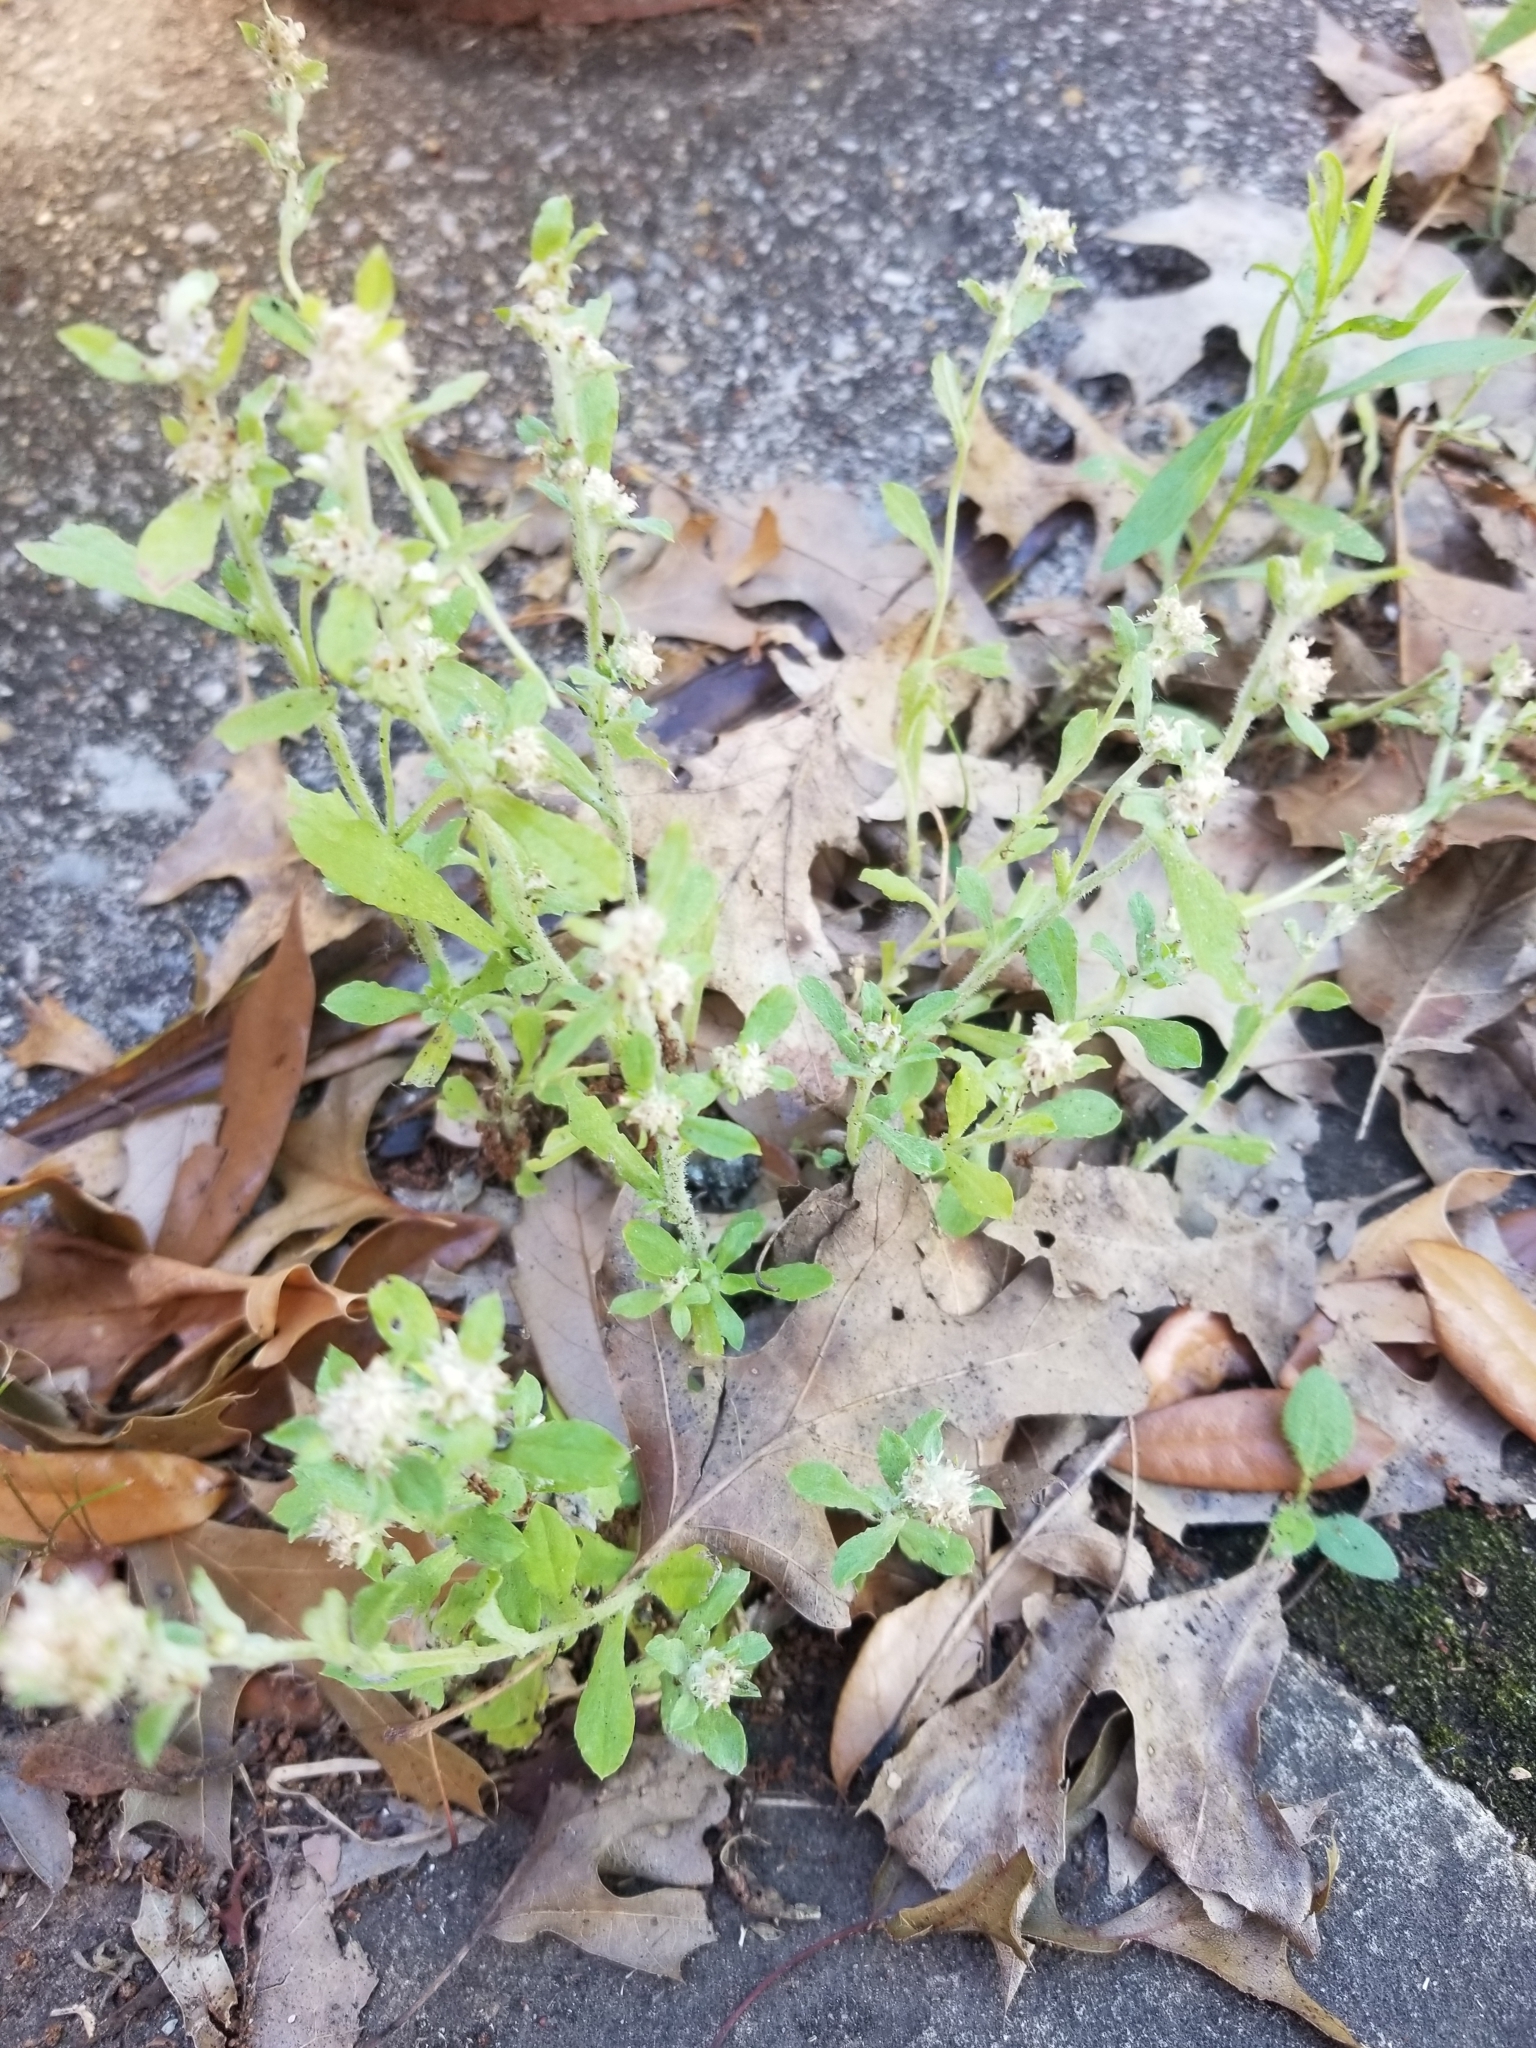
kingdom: Plantae
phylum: Tracheophyta
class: Magnoliopsida
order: Asterales
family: Asteraceae
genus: Gamochaeta
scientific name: Gamochaeta pensylvanica
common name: Pennsylvania everlasting
